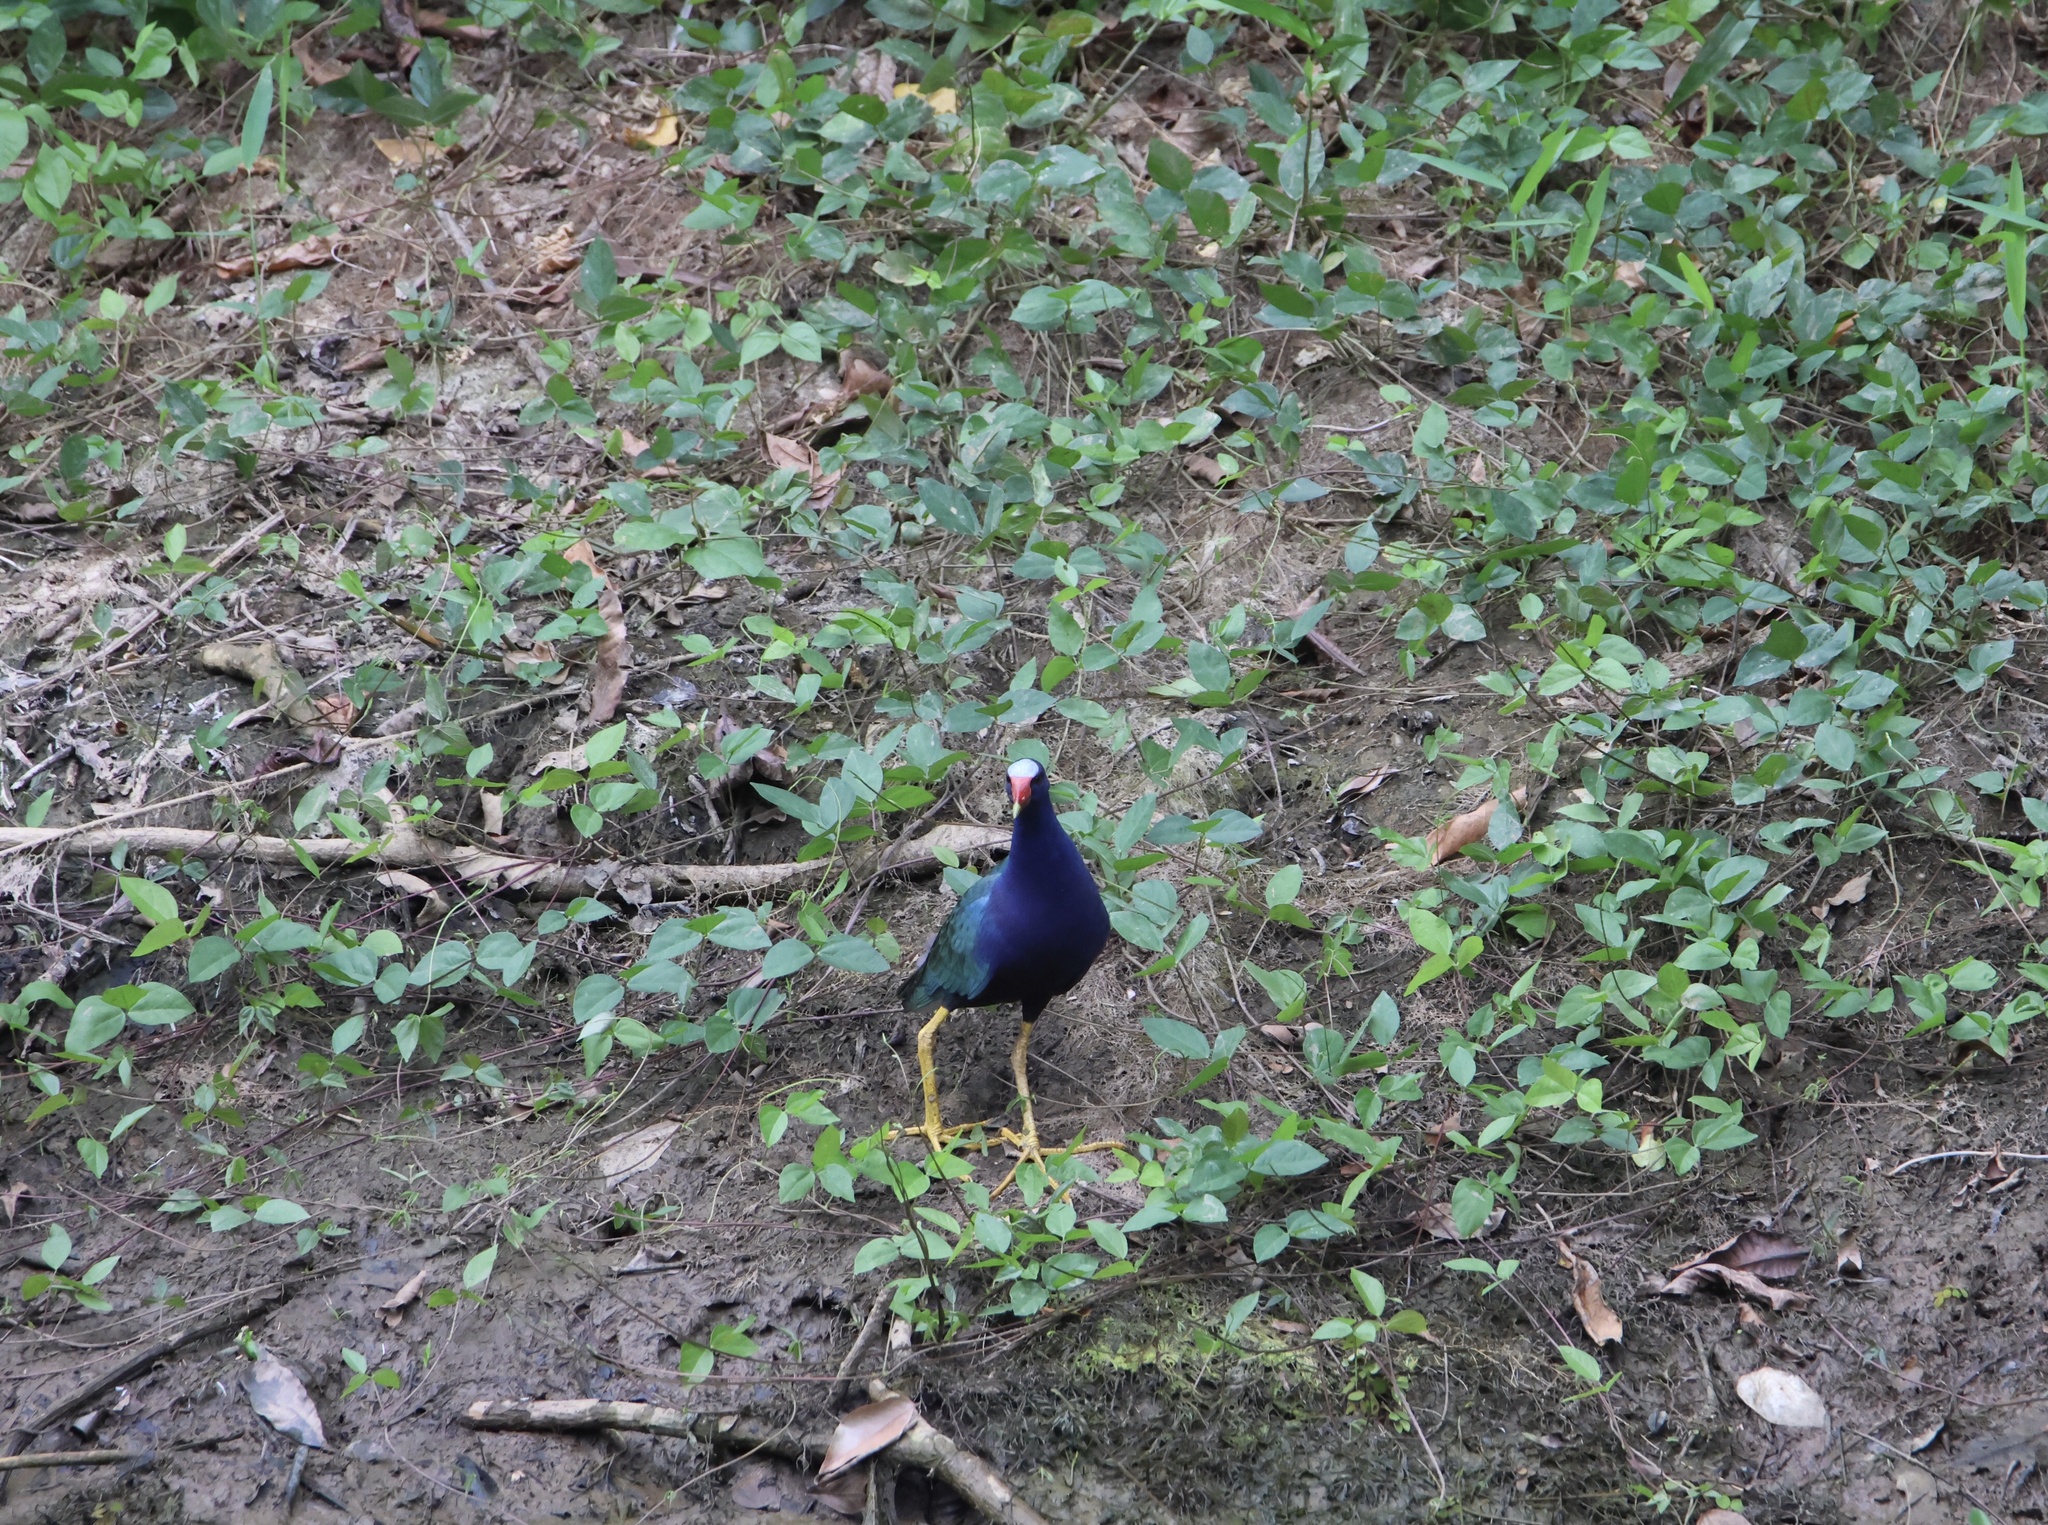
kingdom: Animalia
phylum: Chordata
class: Aves
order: Gruiformes
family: Rallidae
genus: Porphyrio
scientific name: Porphyrio martinica
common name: Purple gallinule
